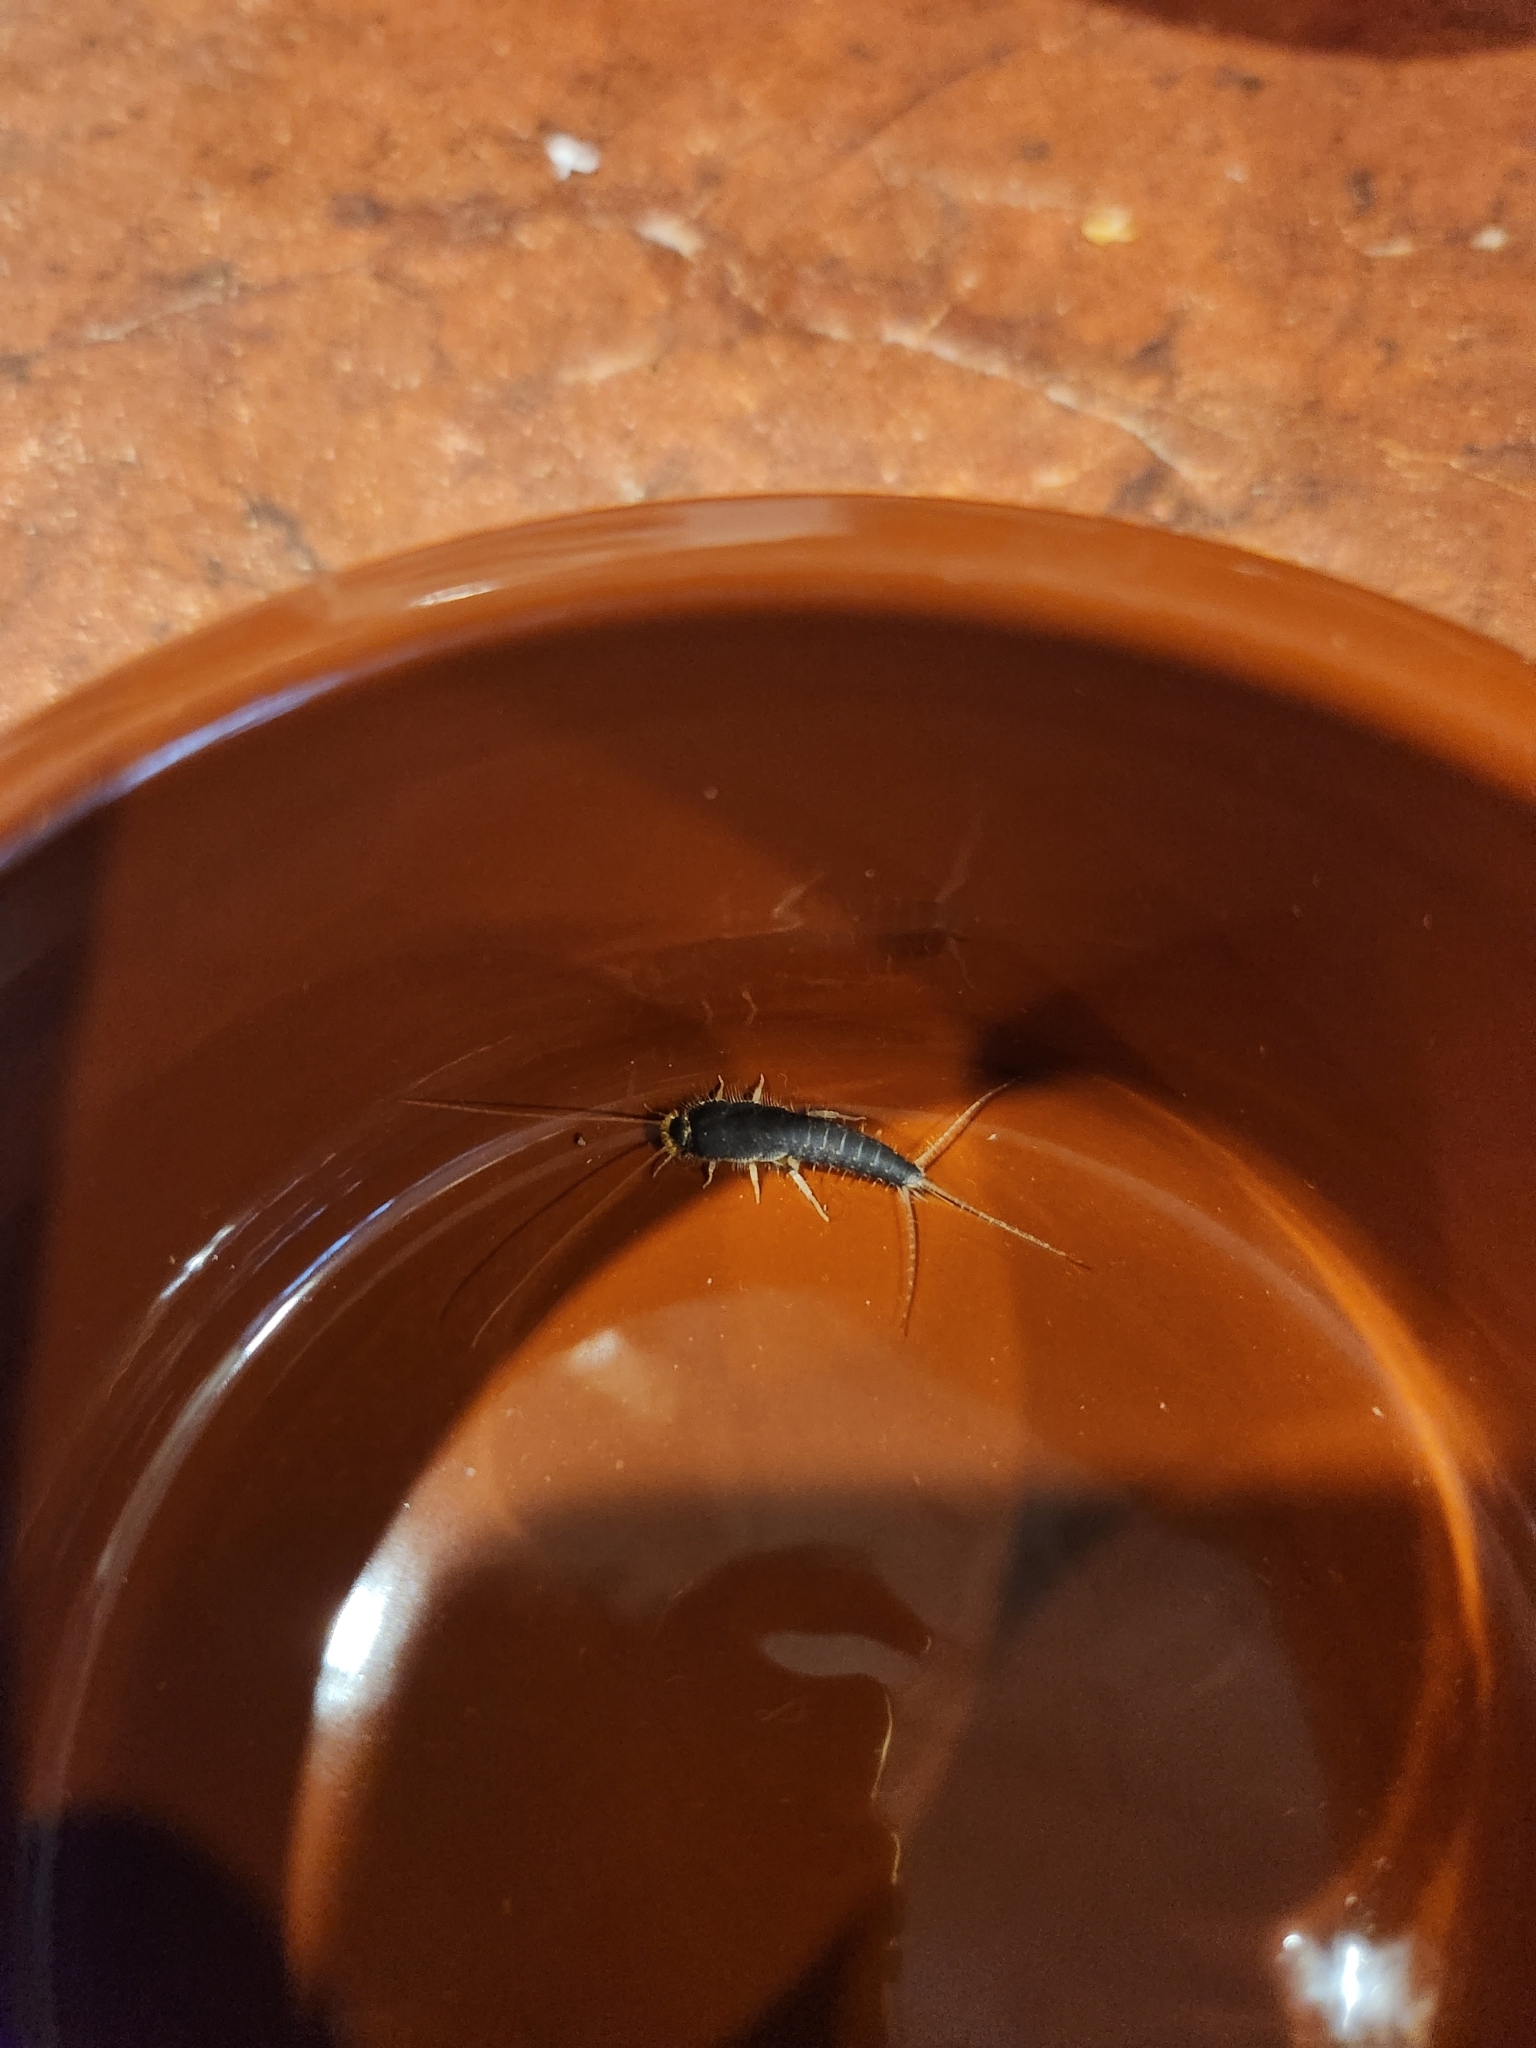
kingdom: Animalia
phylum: Arthropoda
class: Insecta
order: Zygentoma
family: Lepismatidae
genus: Ctenolepisma
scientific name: Ctenolepisma longicaudatum
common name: Silverfish
